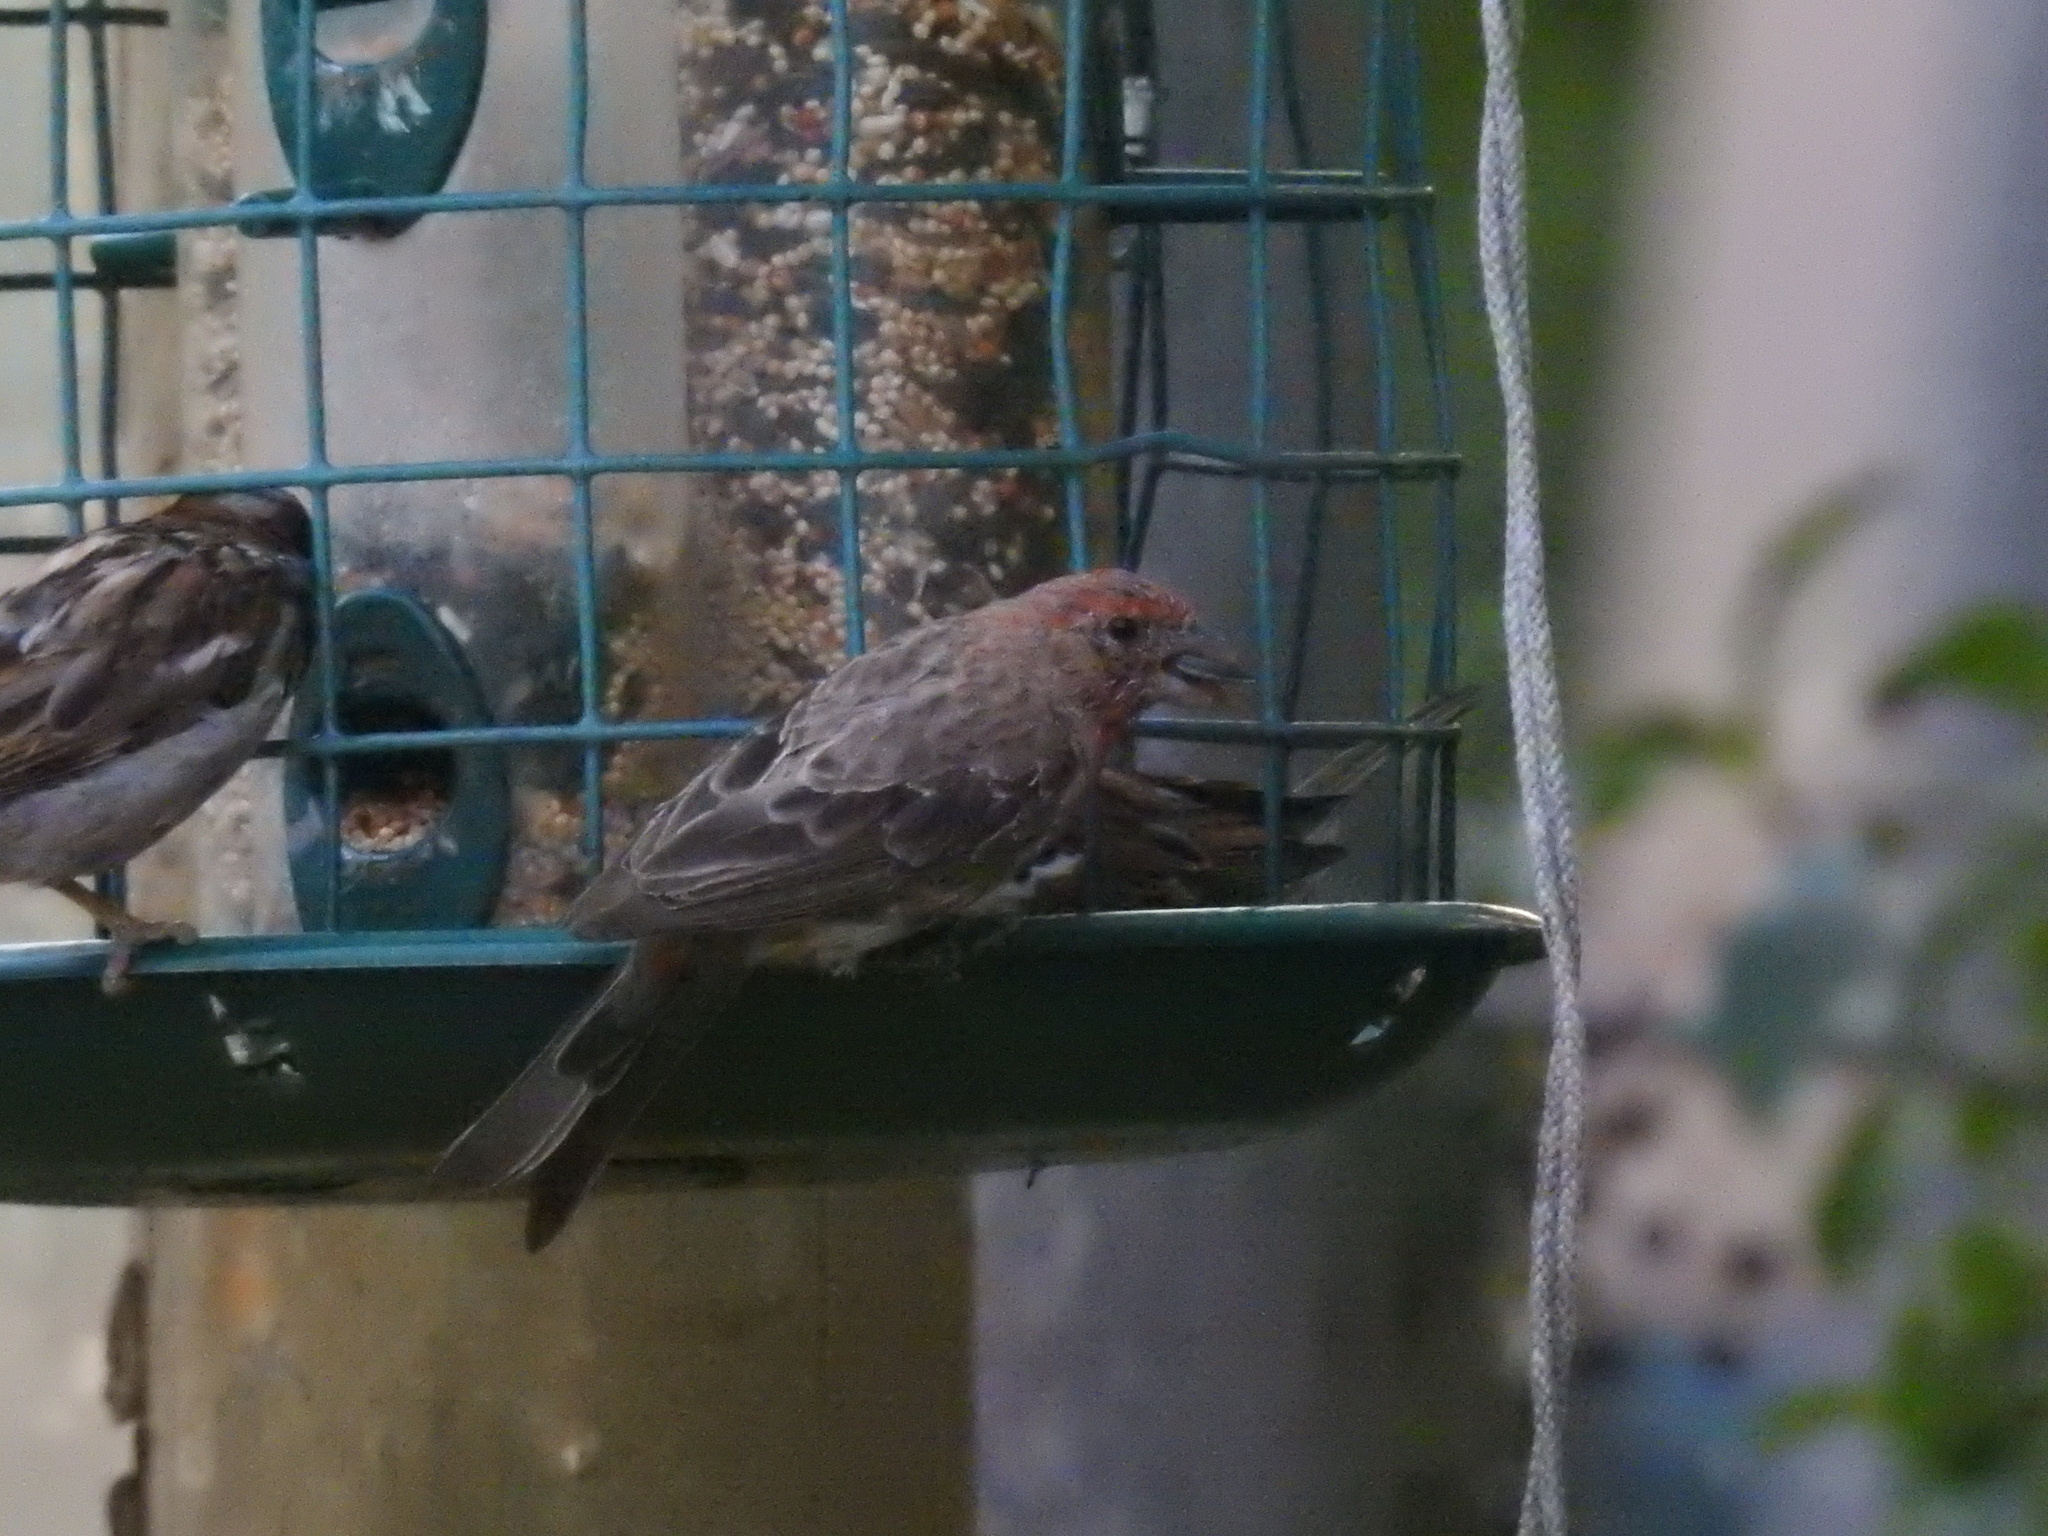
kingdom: Animalia
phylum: Chordata
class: Aves
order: Passeriformes
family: Fringillidae
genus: Haemorhous
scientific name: Haemorhous mexicanus
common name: House finch
